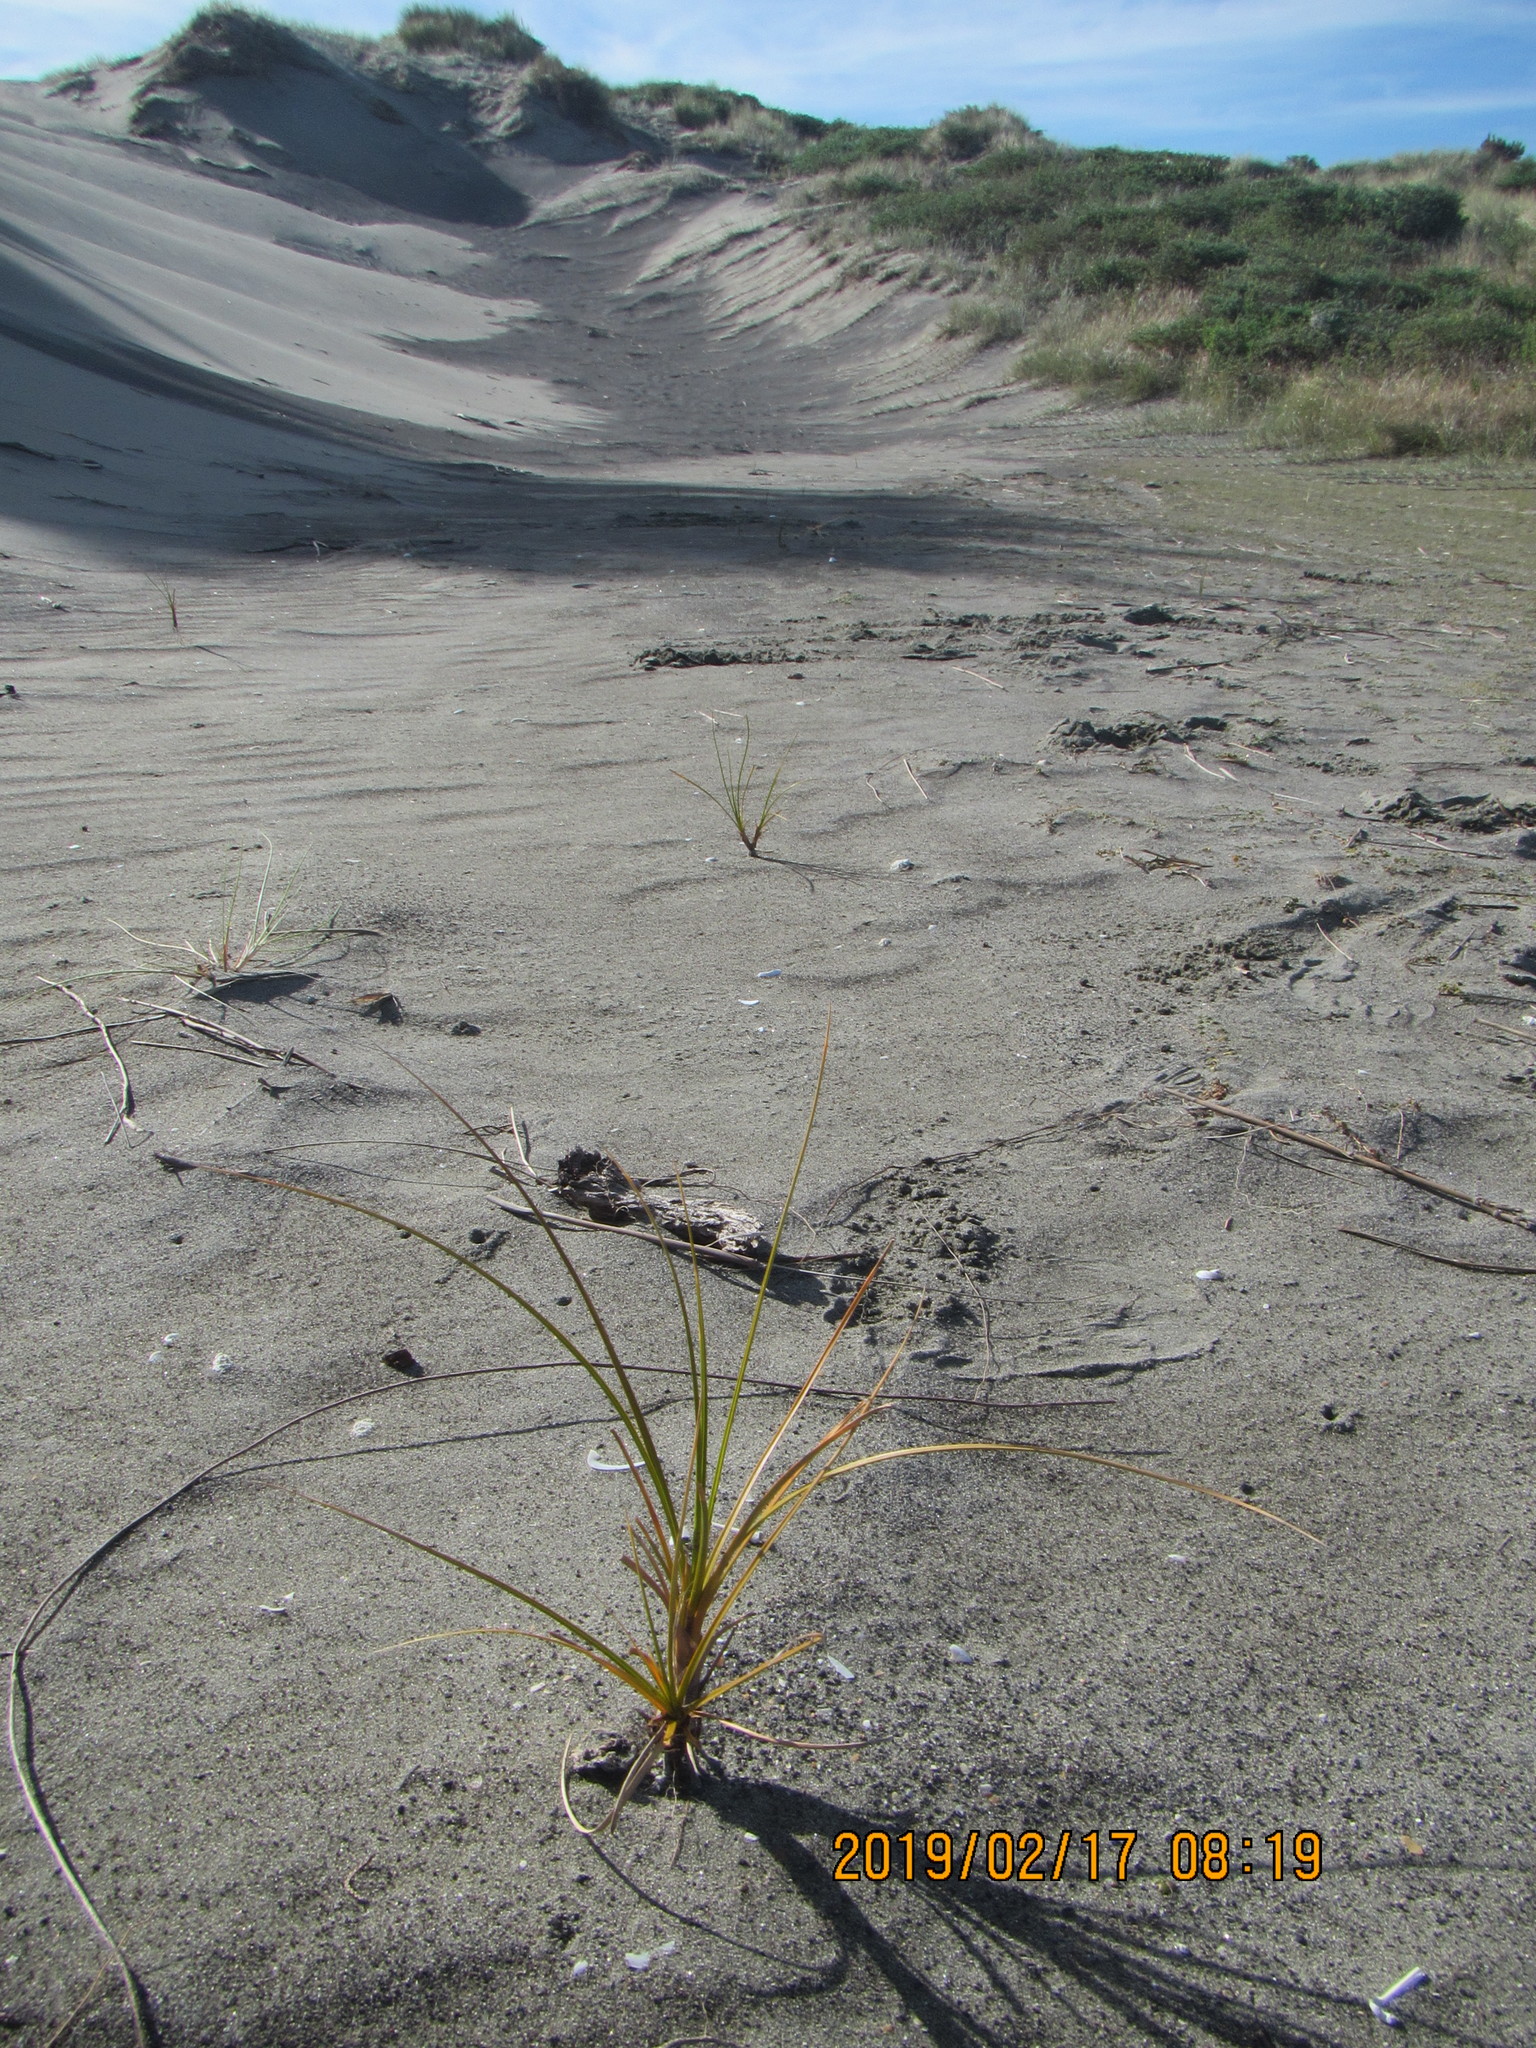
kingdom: Plantae
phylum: Tracheophyta
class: Liliopsida
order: Poales
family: Cyperaceae
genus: Ficinia
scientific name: Ficinia spiralis
